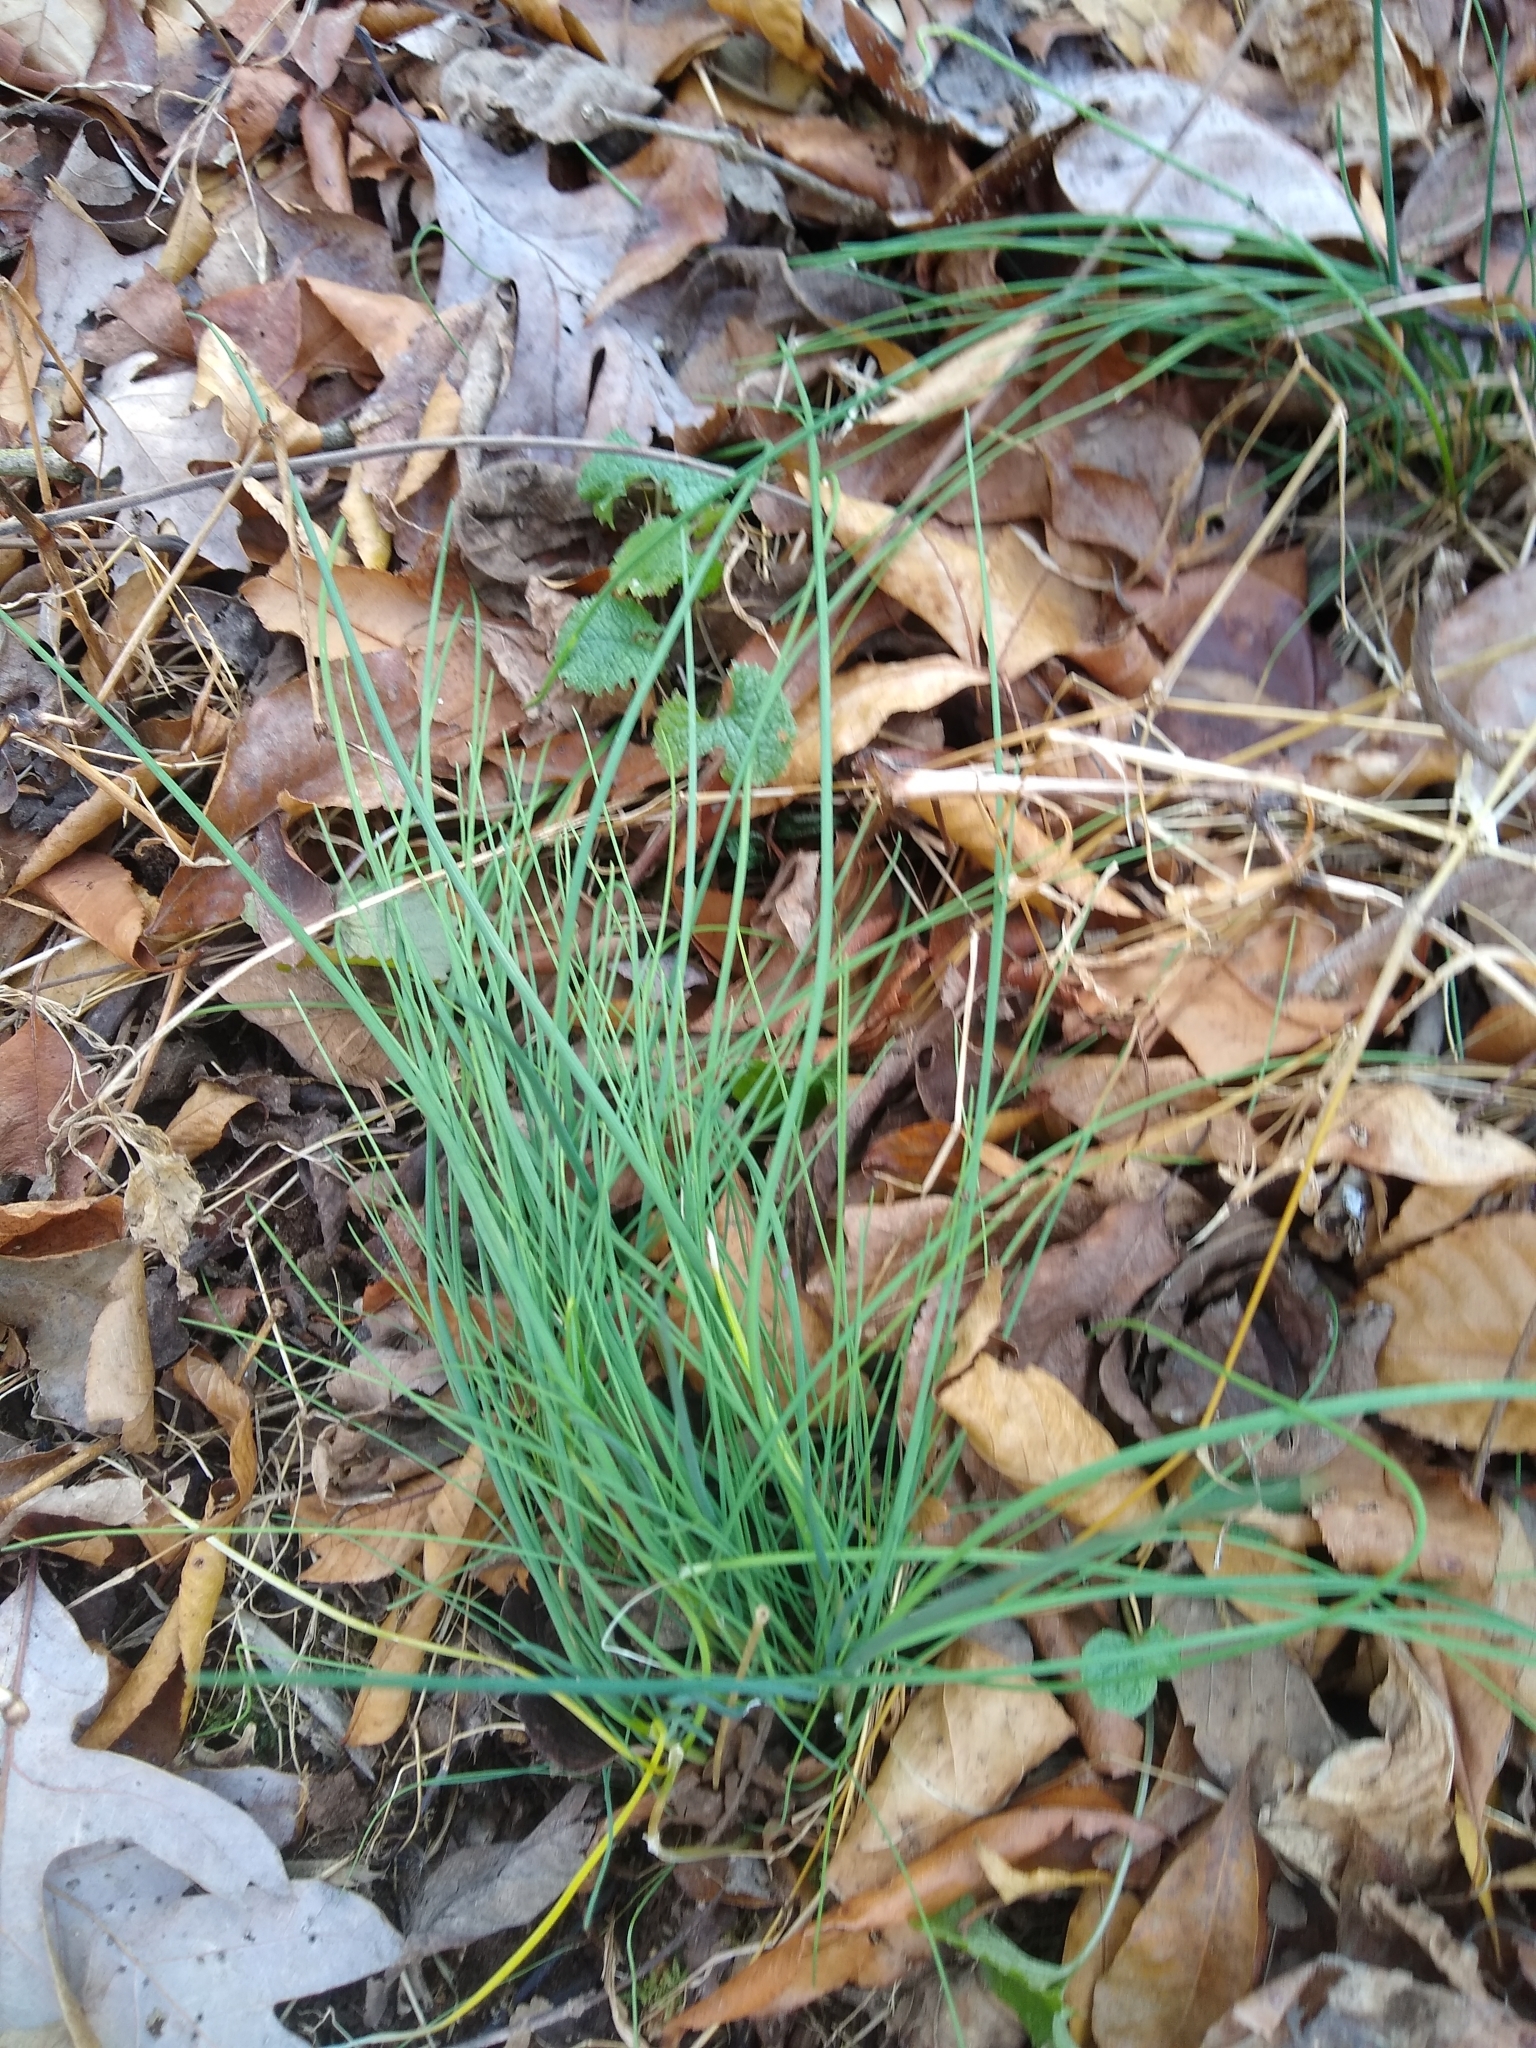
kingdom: Plantae
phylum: Tracheophyta
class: Liliopsida
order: Asparagales
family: Amaryllidaceae
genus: Allium
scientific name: Allium vineale
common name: Crow garlic
